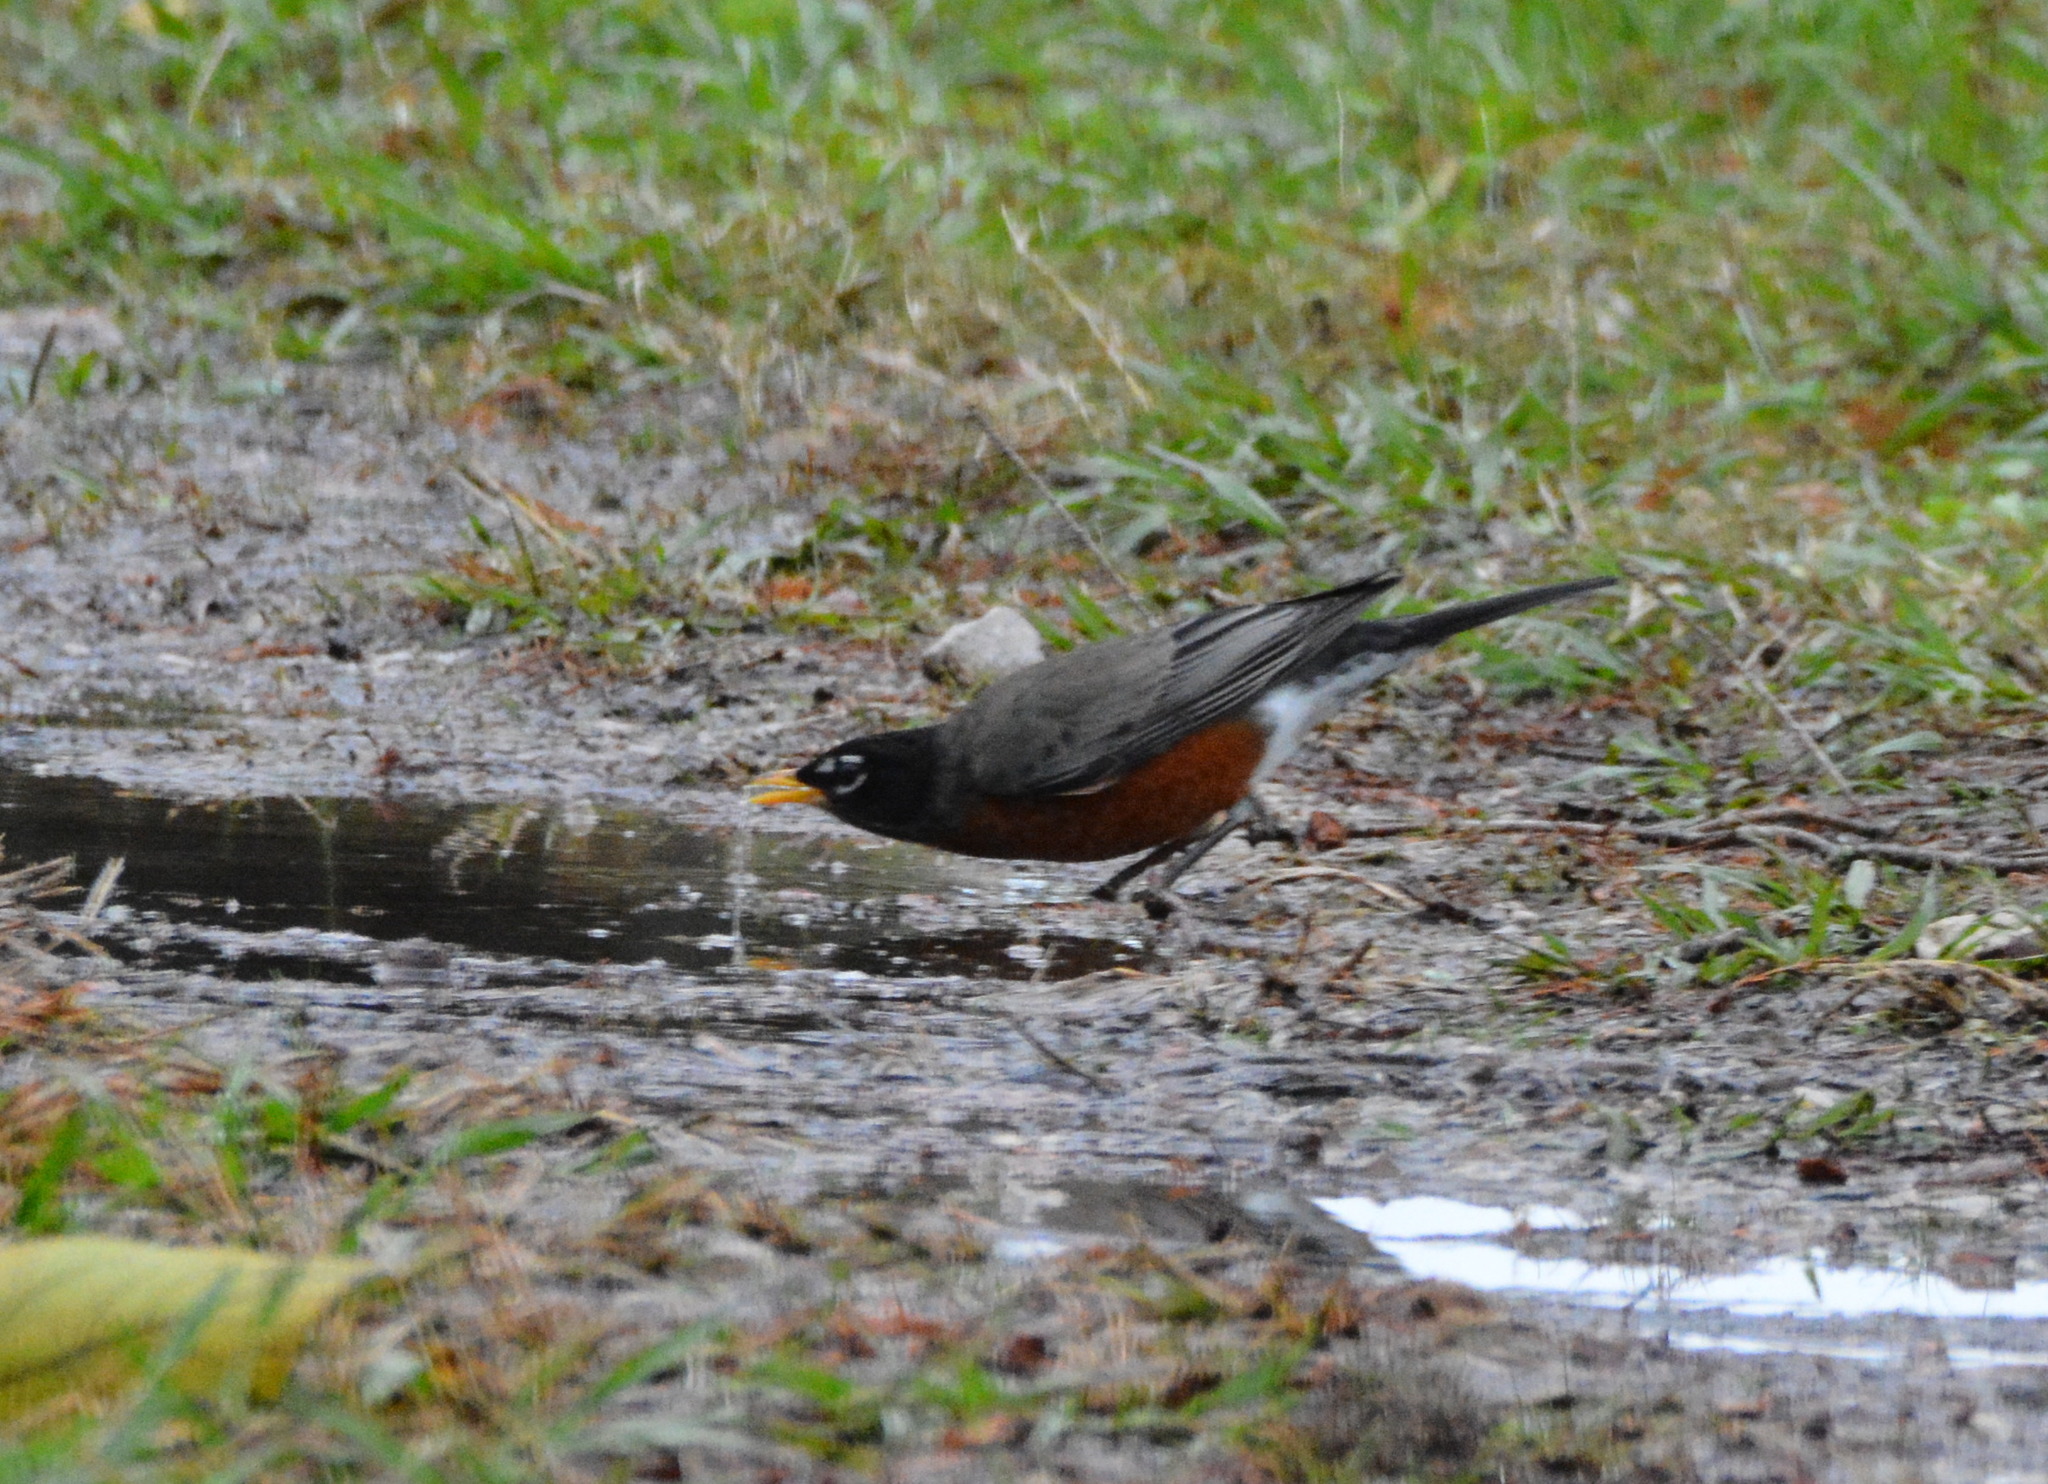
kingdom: Animalia
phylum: Chordata
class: Aves
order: Passeriformes
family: Turdidae
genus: Turdus
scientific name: Turdus migratorius
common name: American robin
